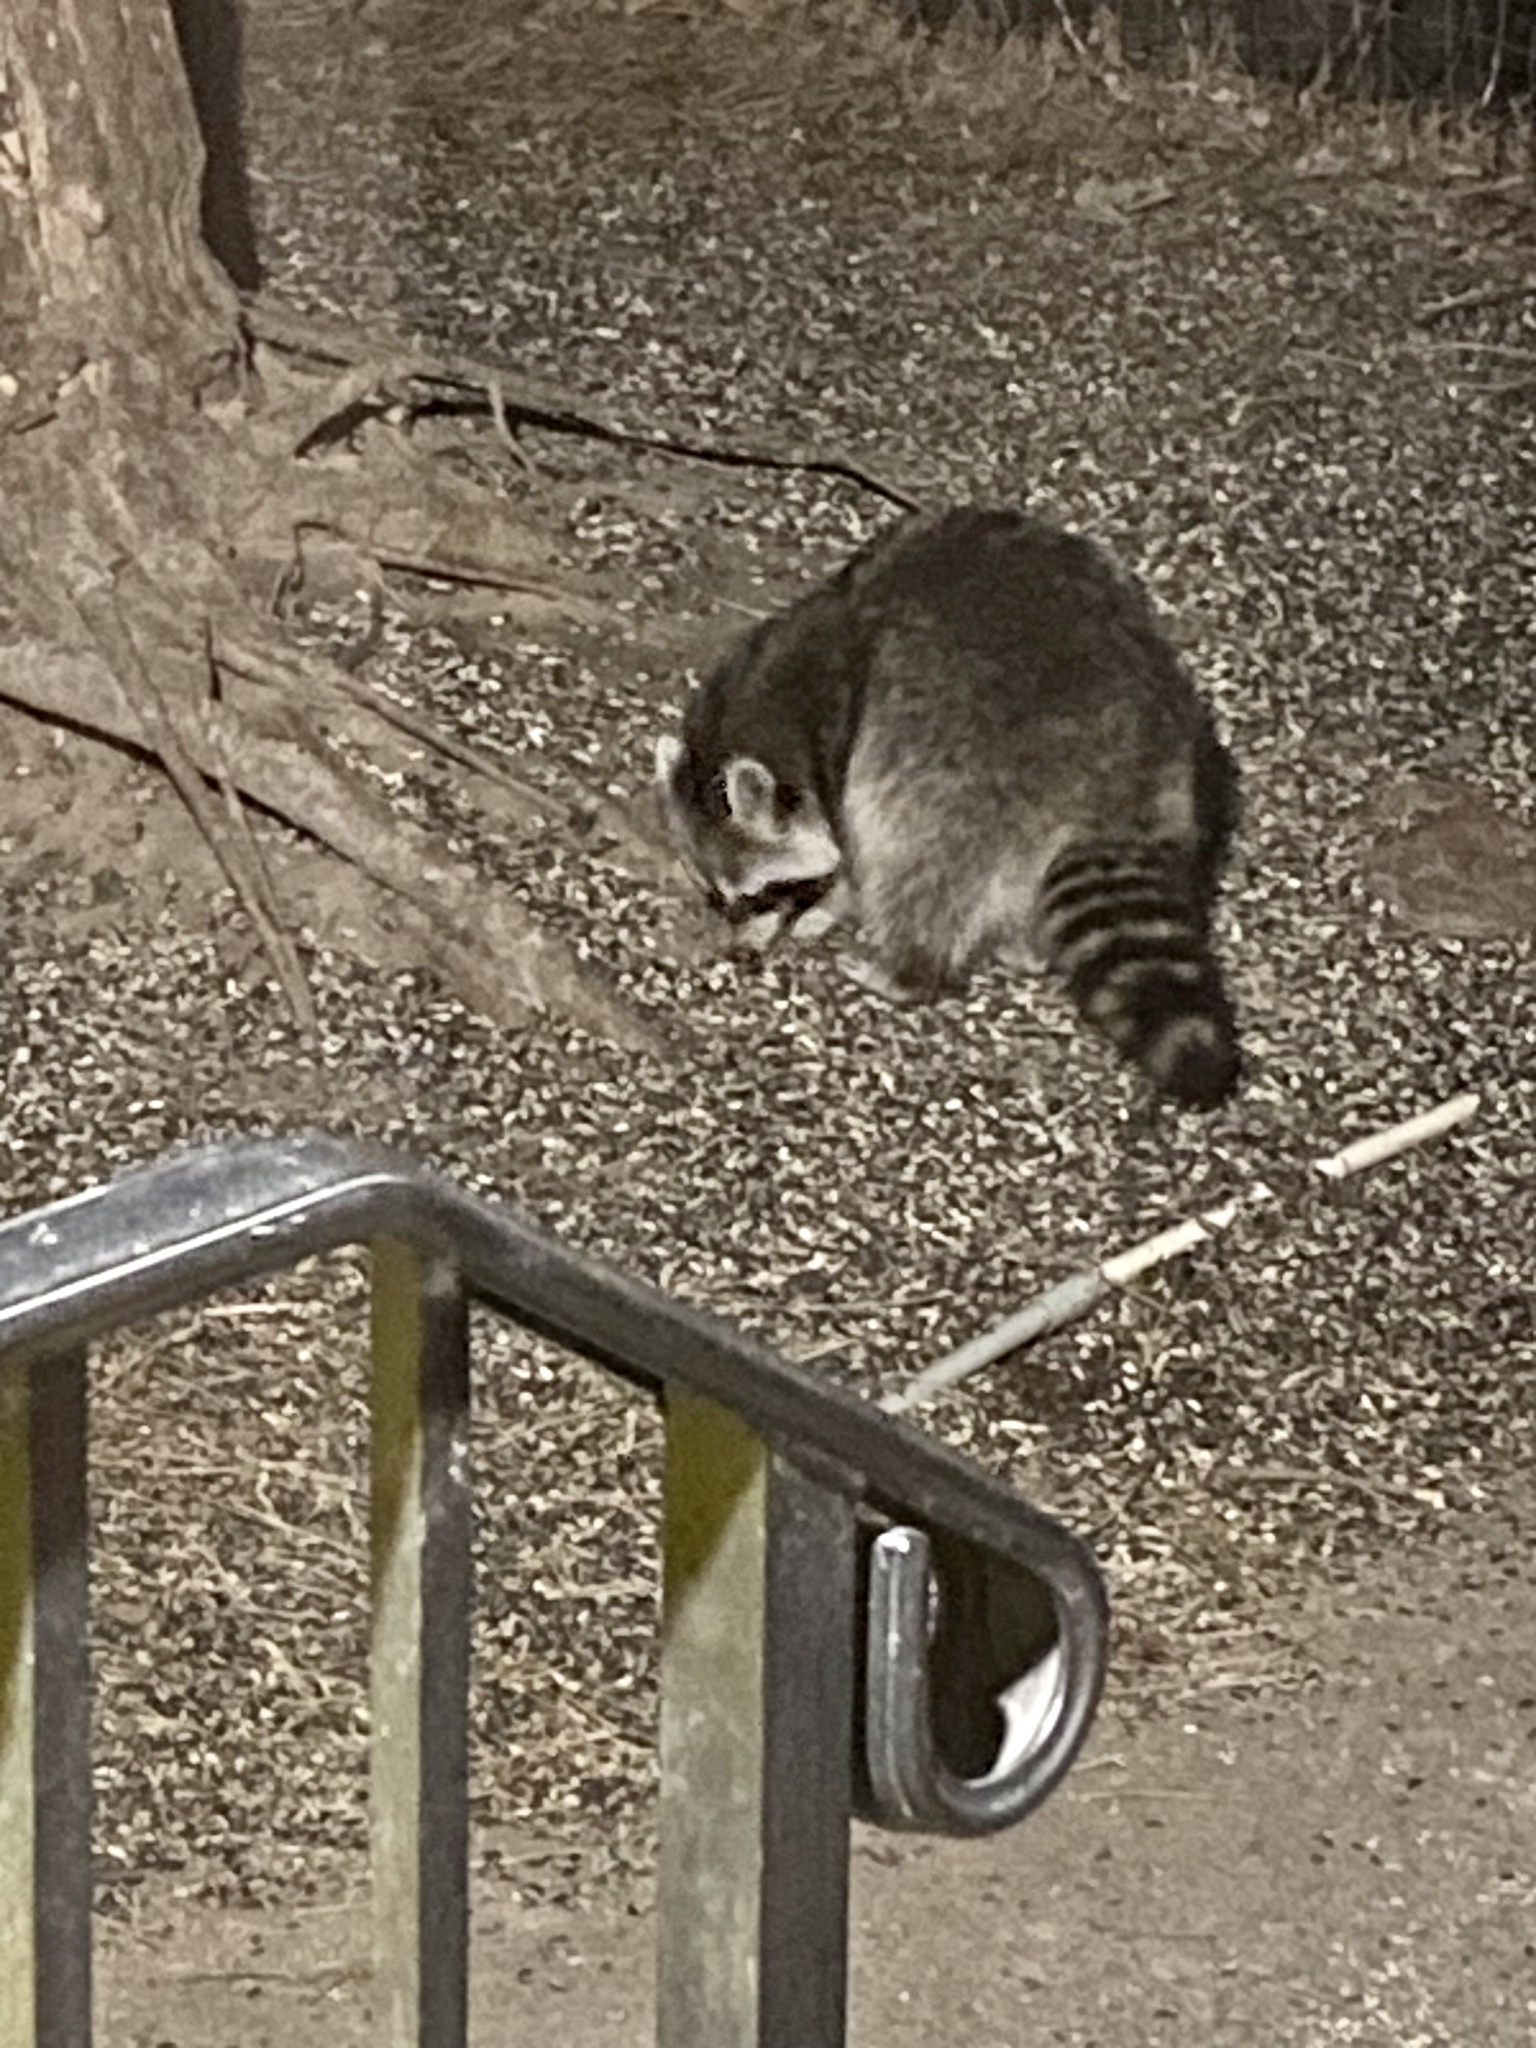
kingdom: Animalia
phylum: Chordata
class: Mammalia
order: Carnivora
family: Procyonidae
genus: Procyon
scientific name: Procyon lotor
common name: Raccoon
